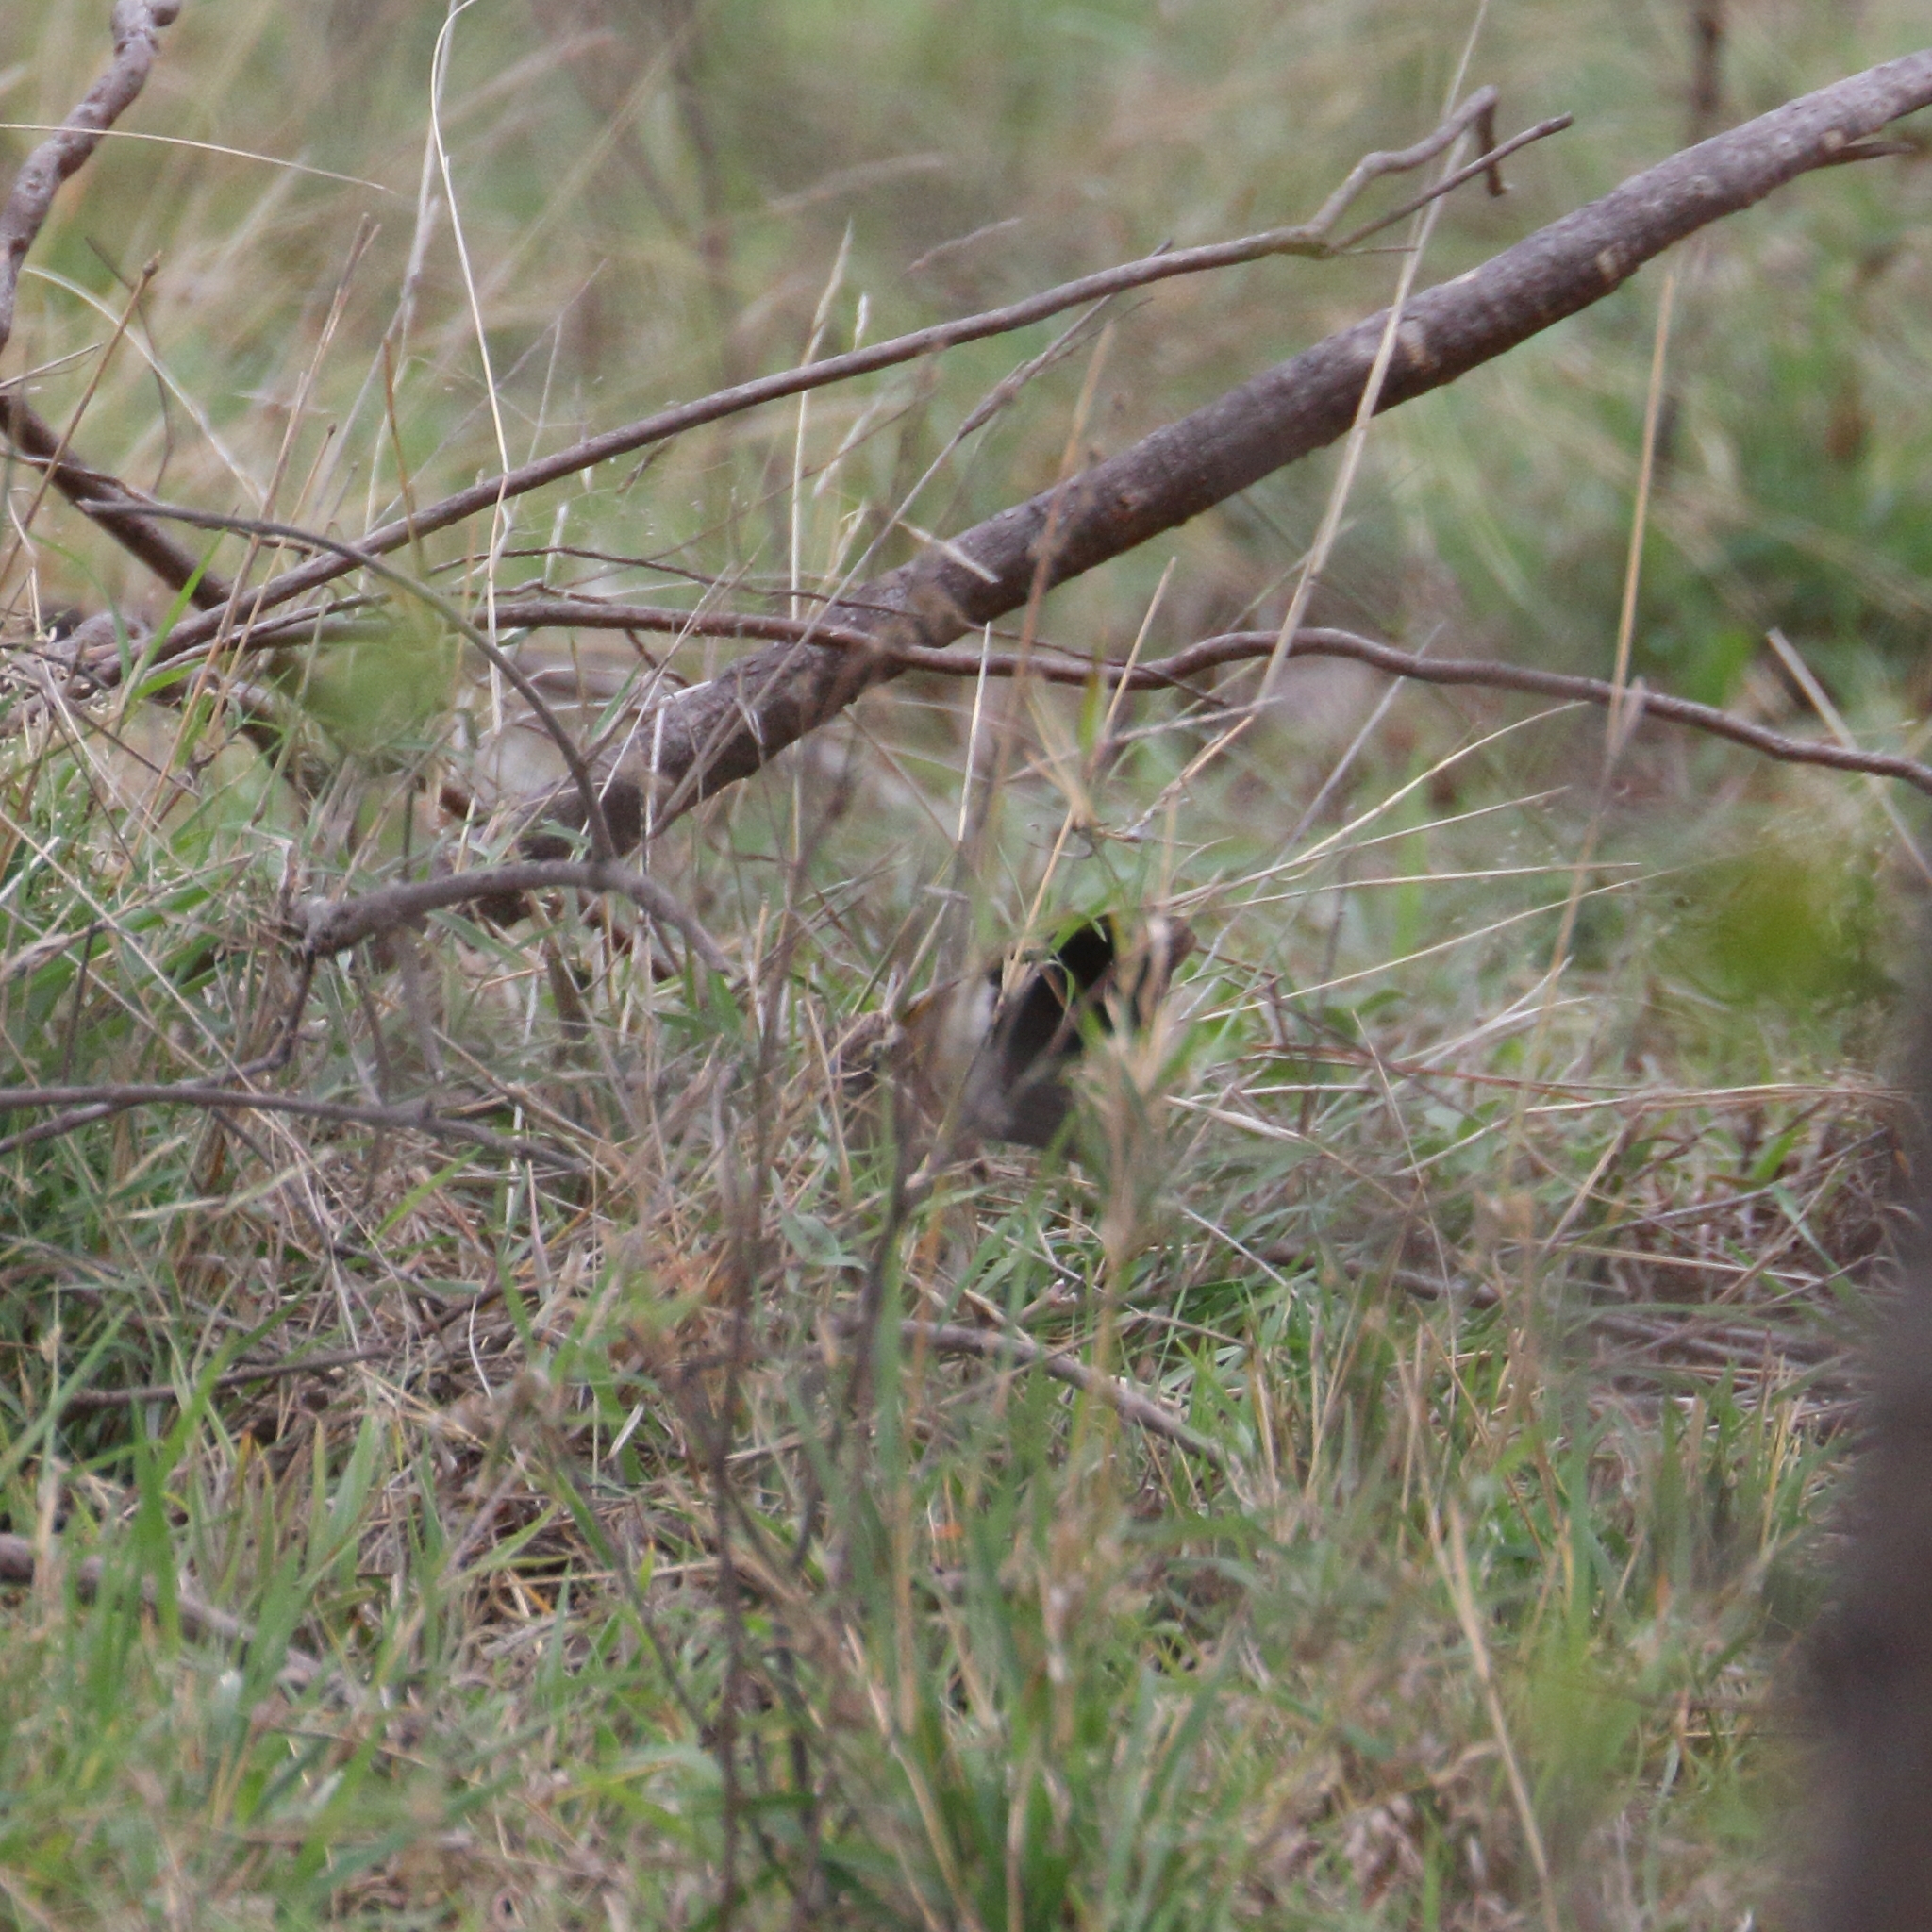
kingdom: Animalia
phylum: Chordata
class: Aves
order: Passeriformes
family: Ploceidae
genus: Euplectes
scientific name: Euplectes albonotatus
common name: White-winged widowbird
